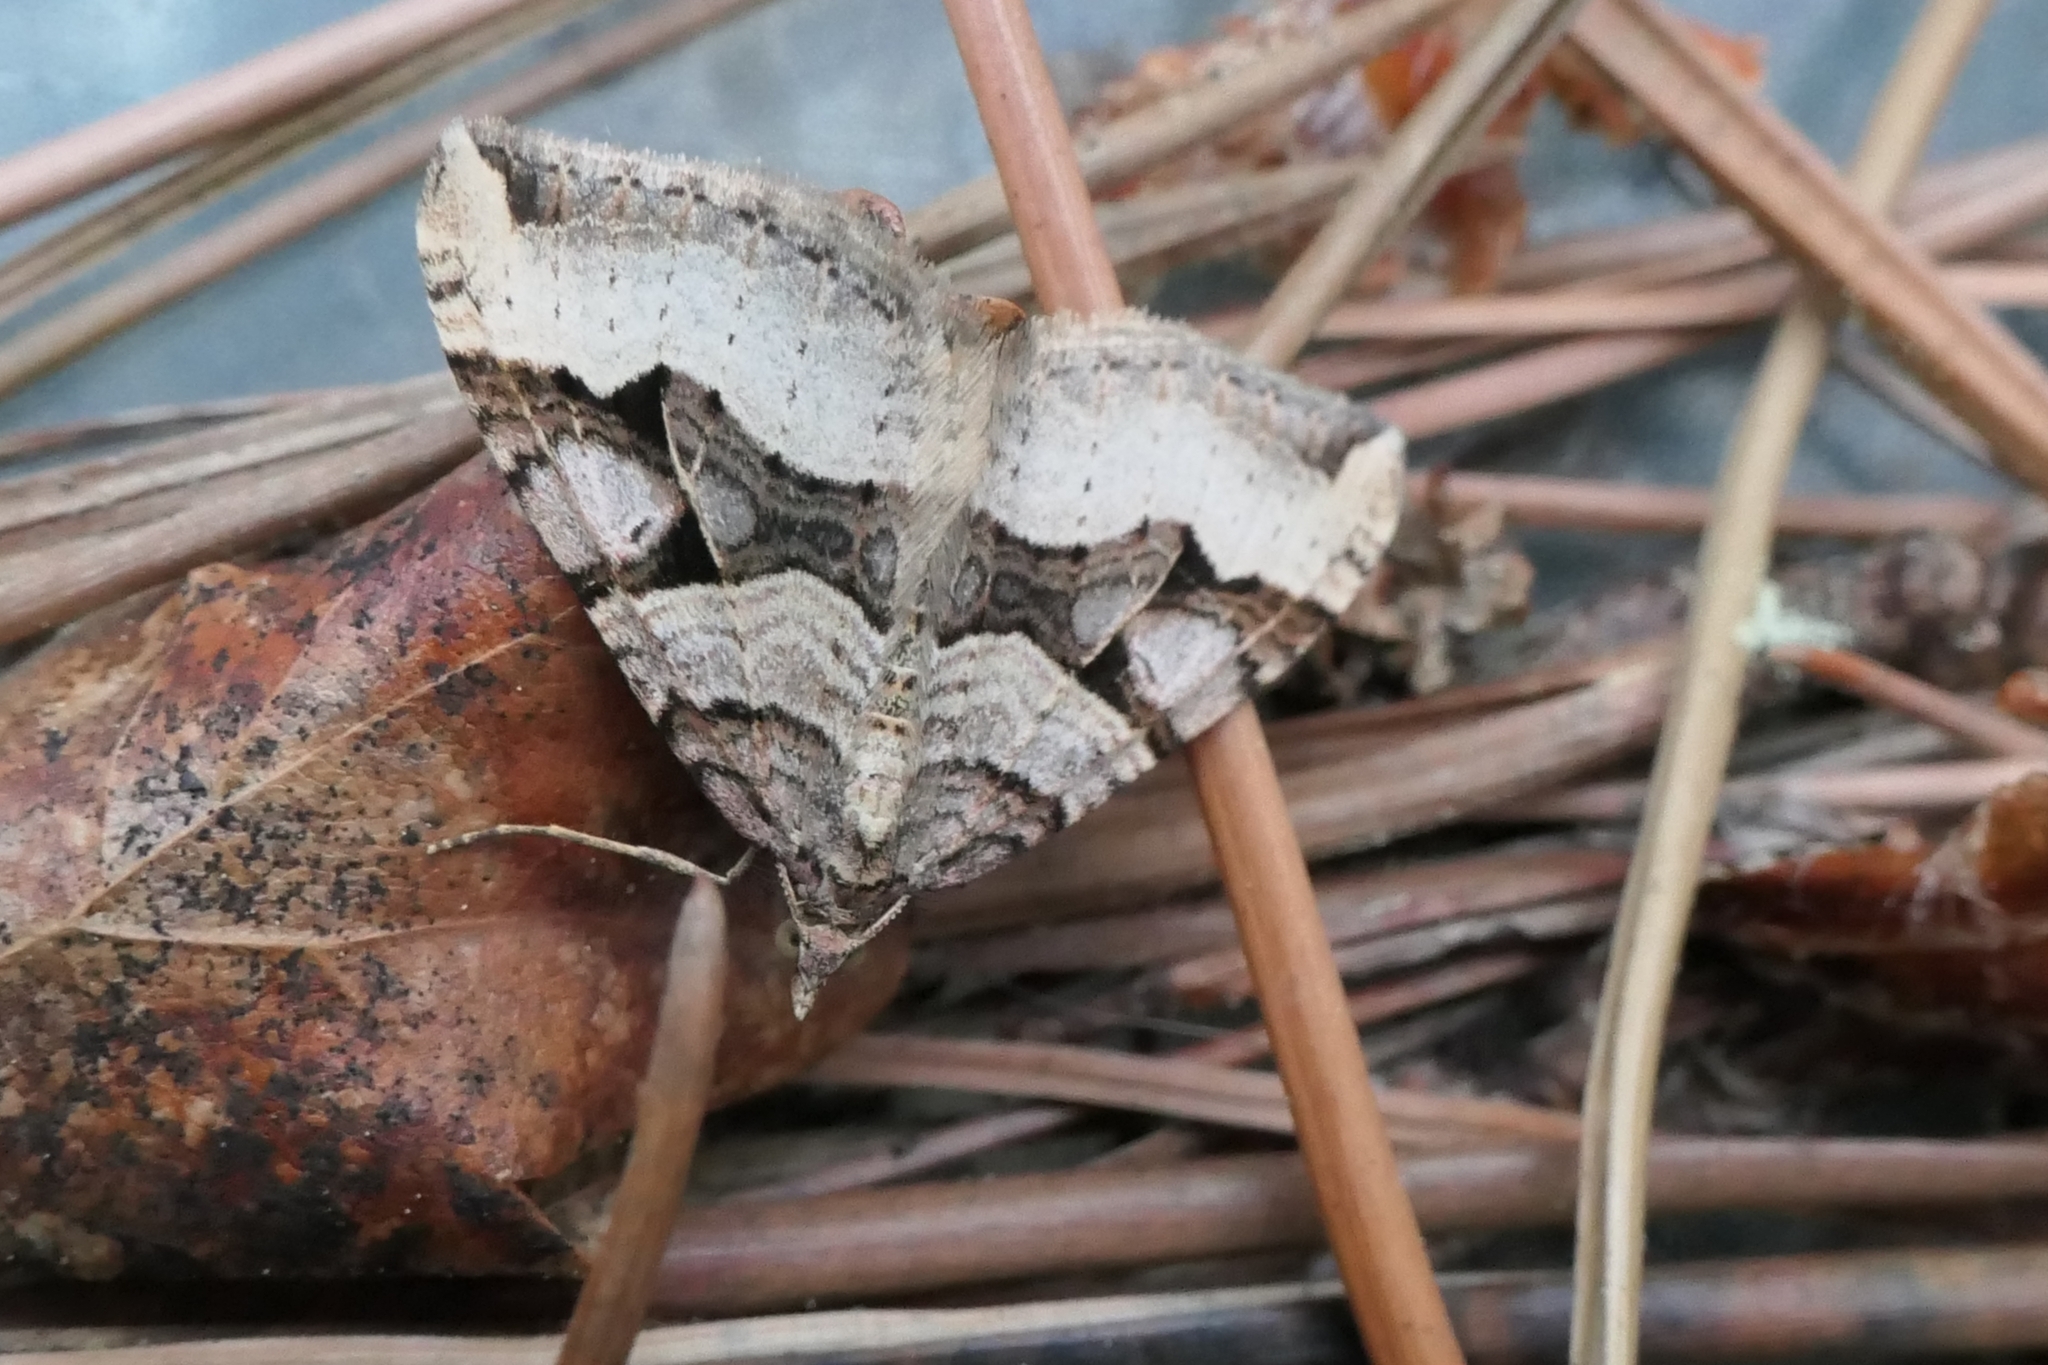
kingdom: Animalia
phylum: Arthropoda
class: Insecta
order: Lepidoptera
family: Geometridae
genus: Xanthorhoe
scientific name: Xanthorhoe semifissata
